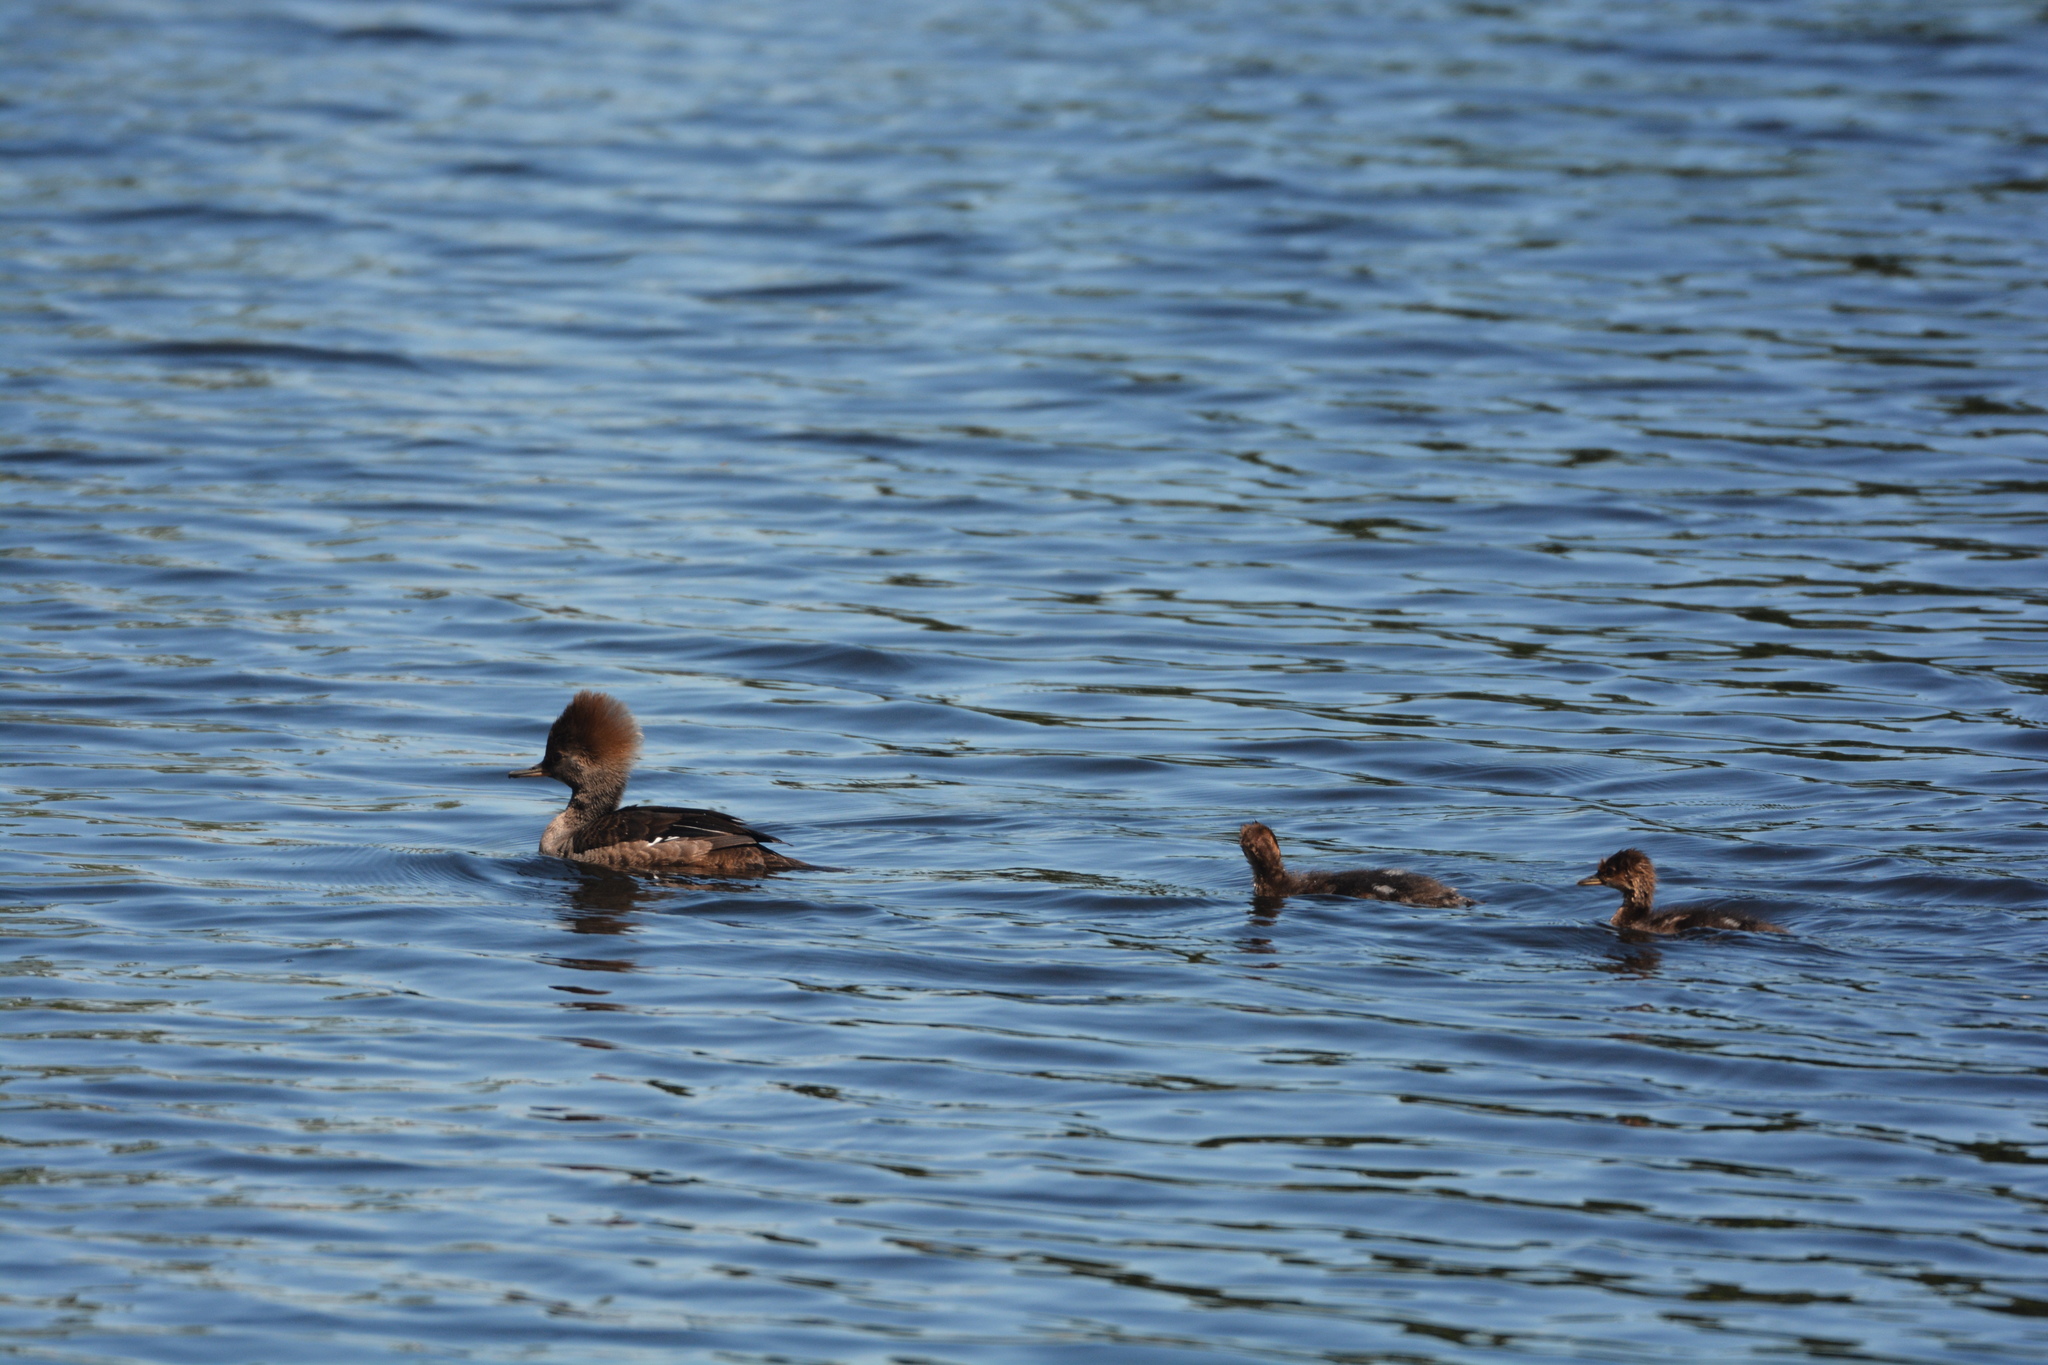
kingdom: Animalia
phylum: Chordata
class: Aves
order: Anseriformes
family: Anatidae
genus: Lophodytes
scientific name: Lophodytes cucullatus
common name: Hooded merganser
